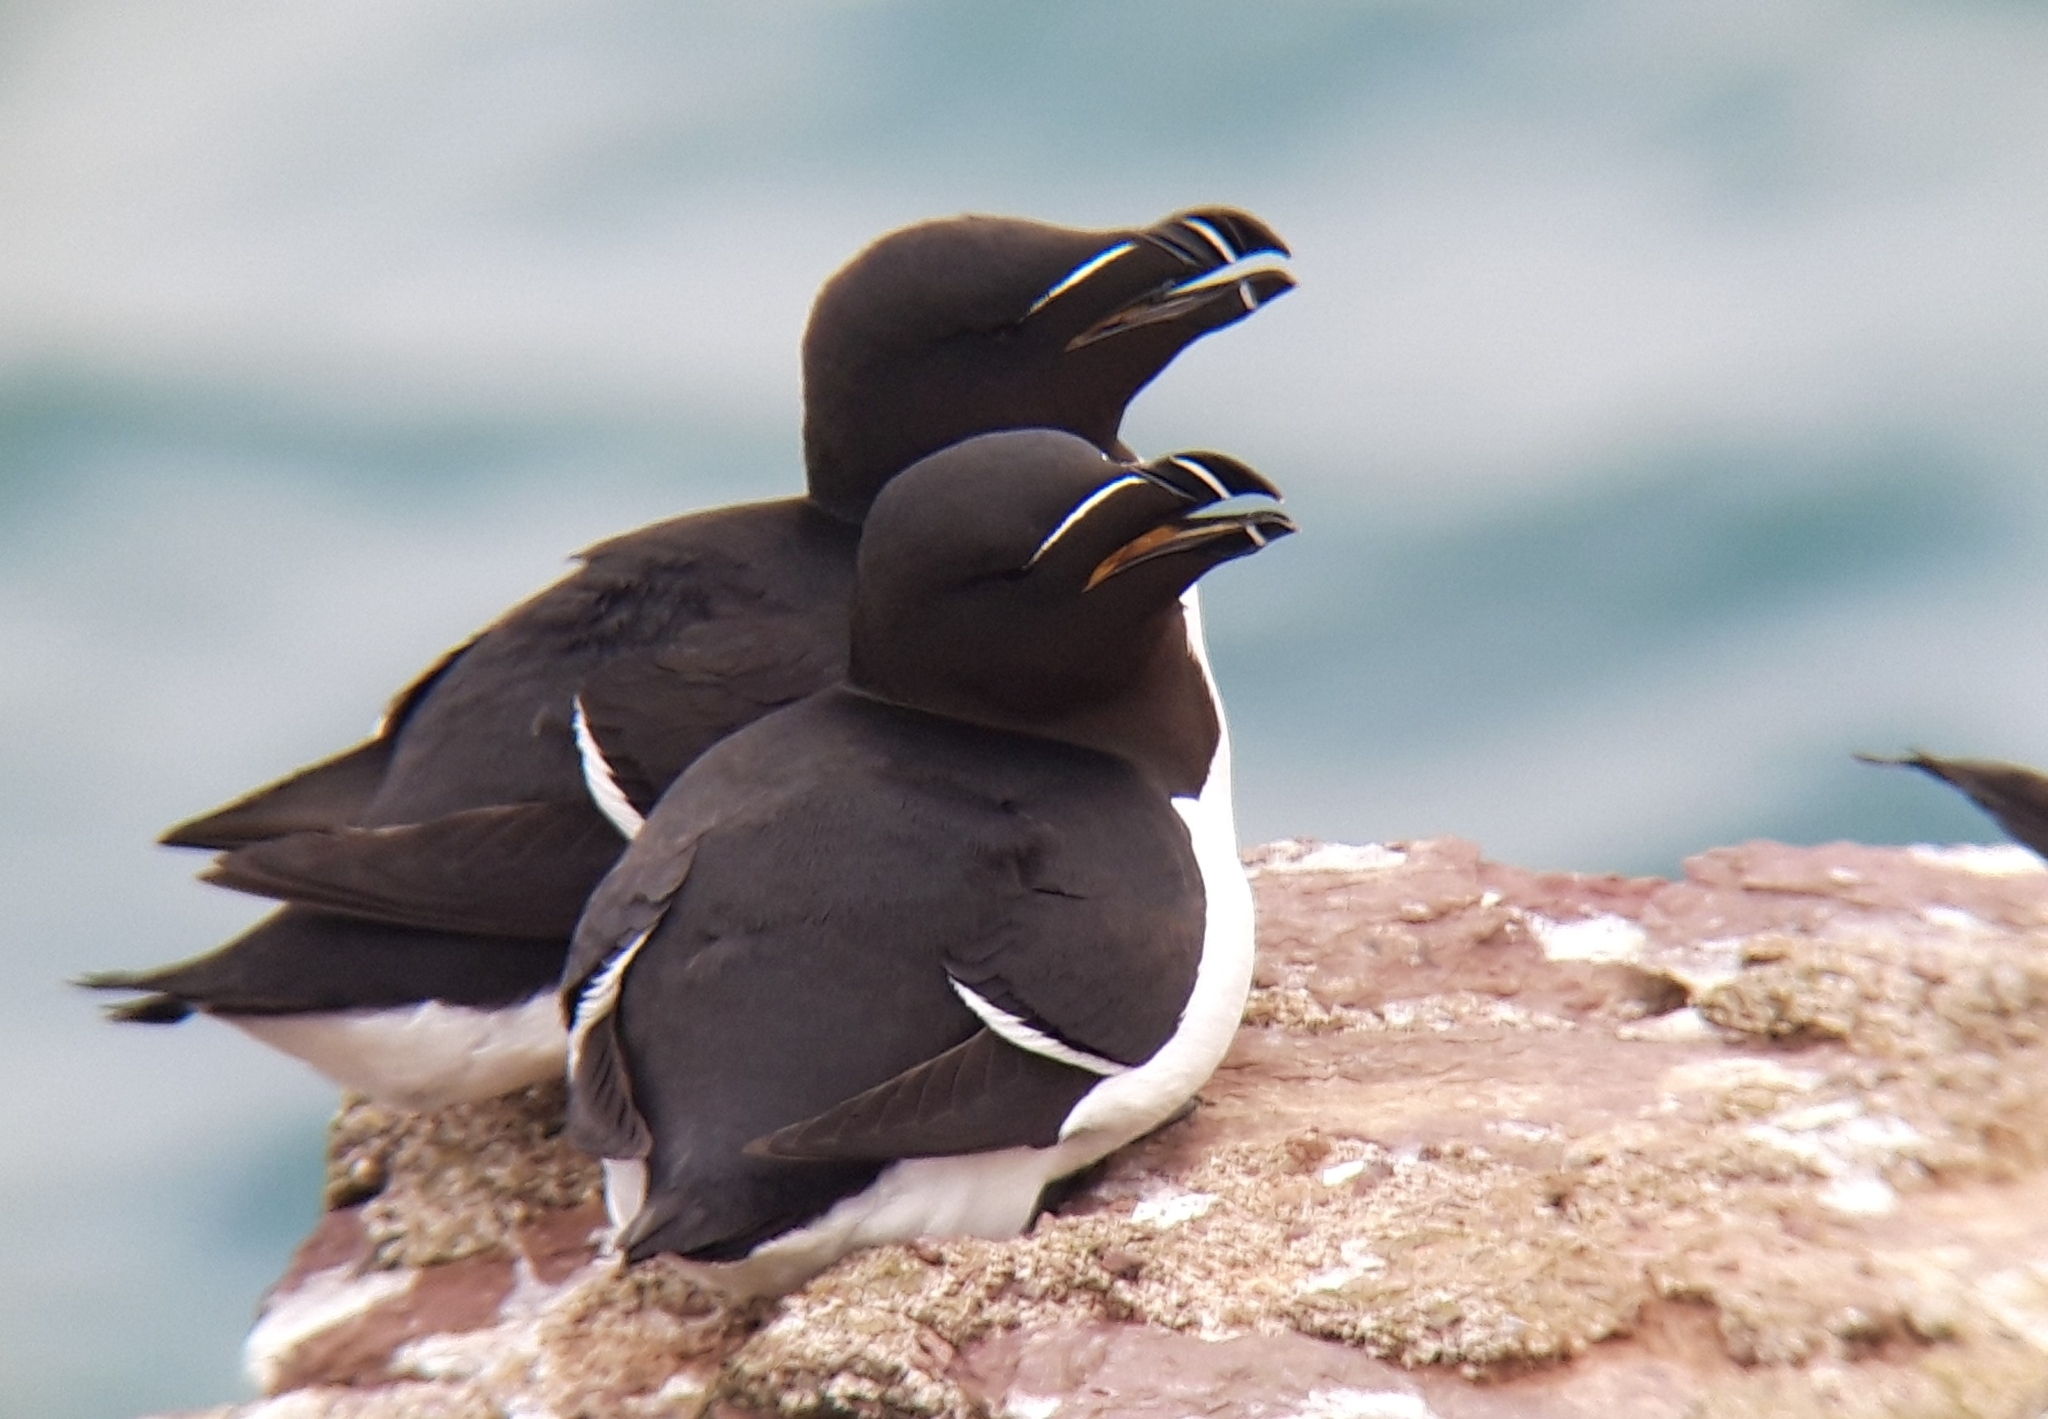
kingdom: Animalia
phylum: Chordata
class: Aves
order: Charadriiformes
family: Alcidae
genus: Alca
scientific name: Alca torda
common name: Razorbill
